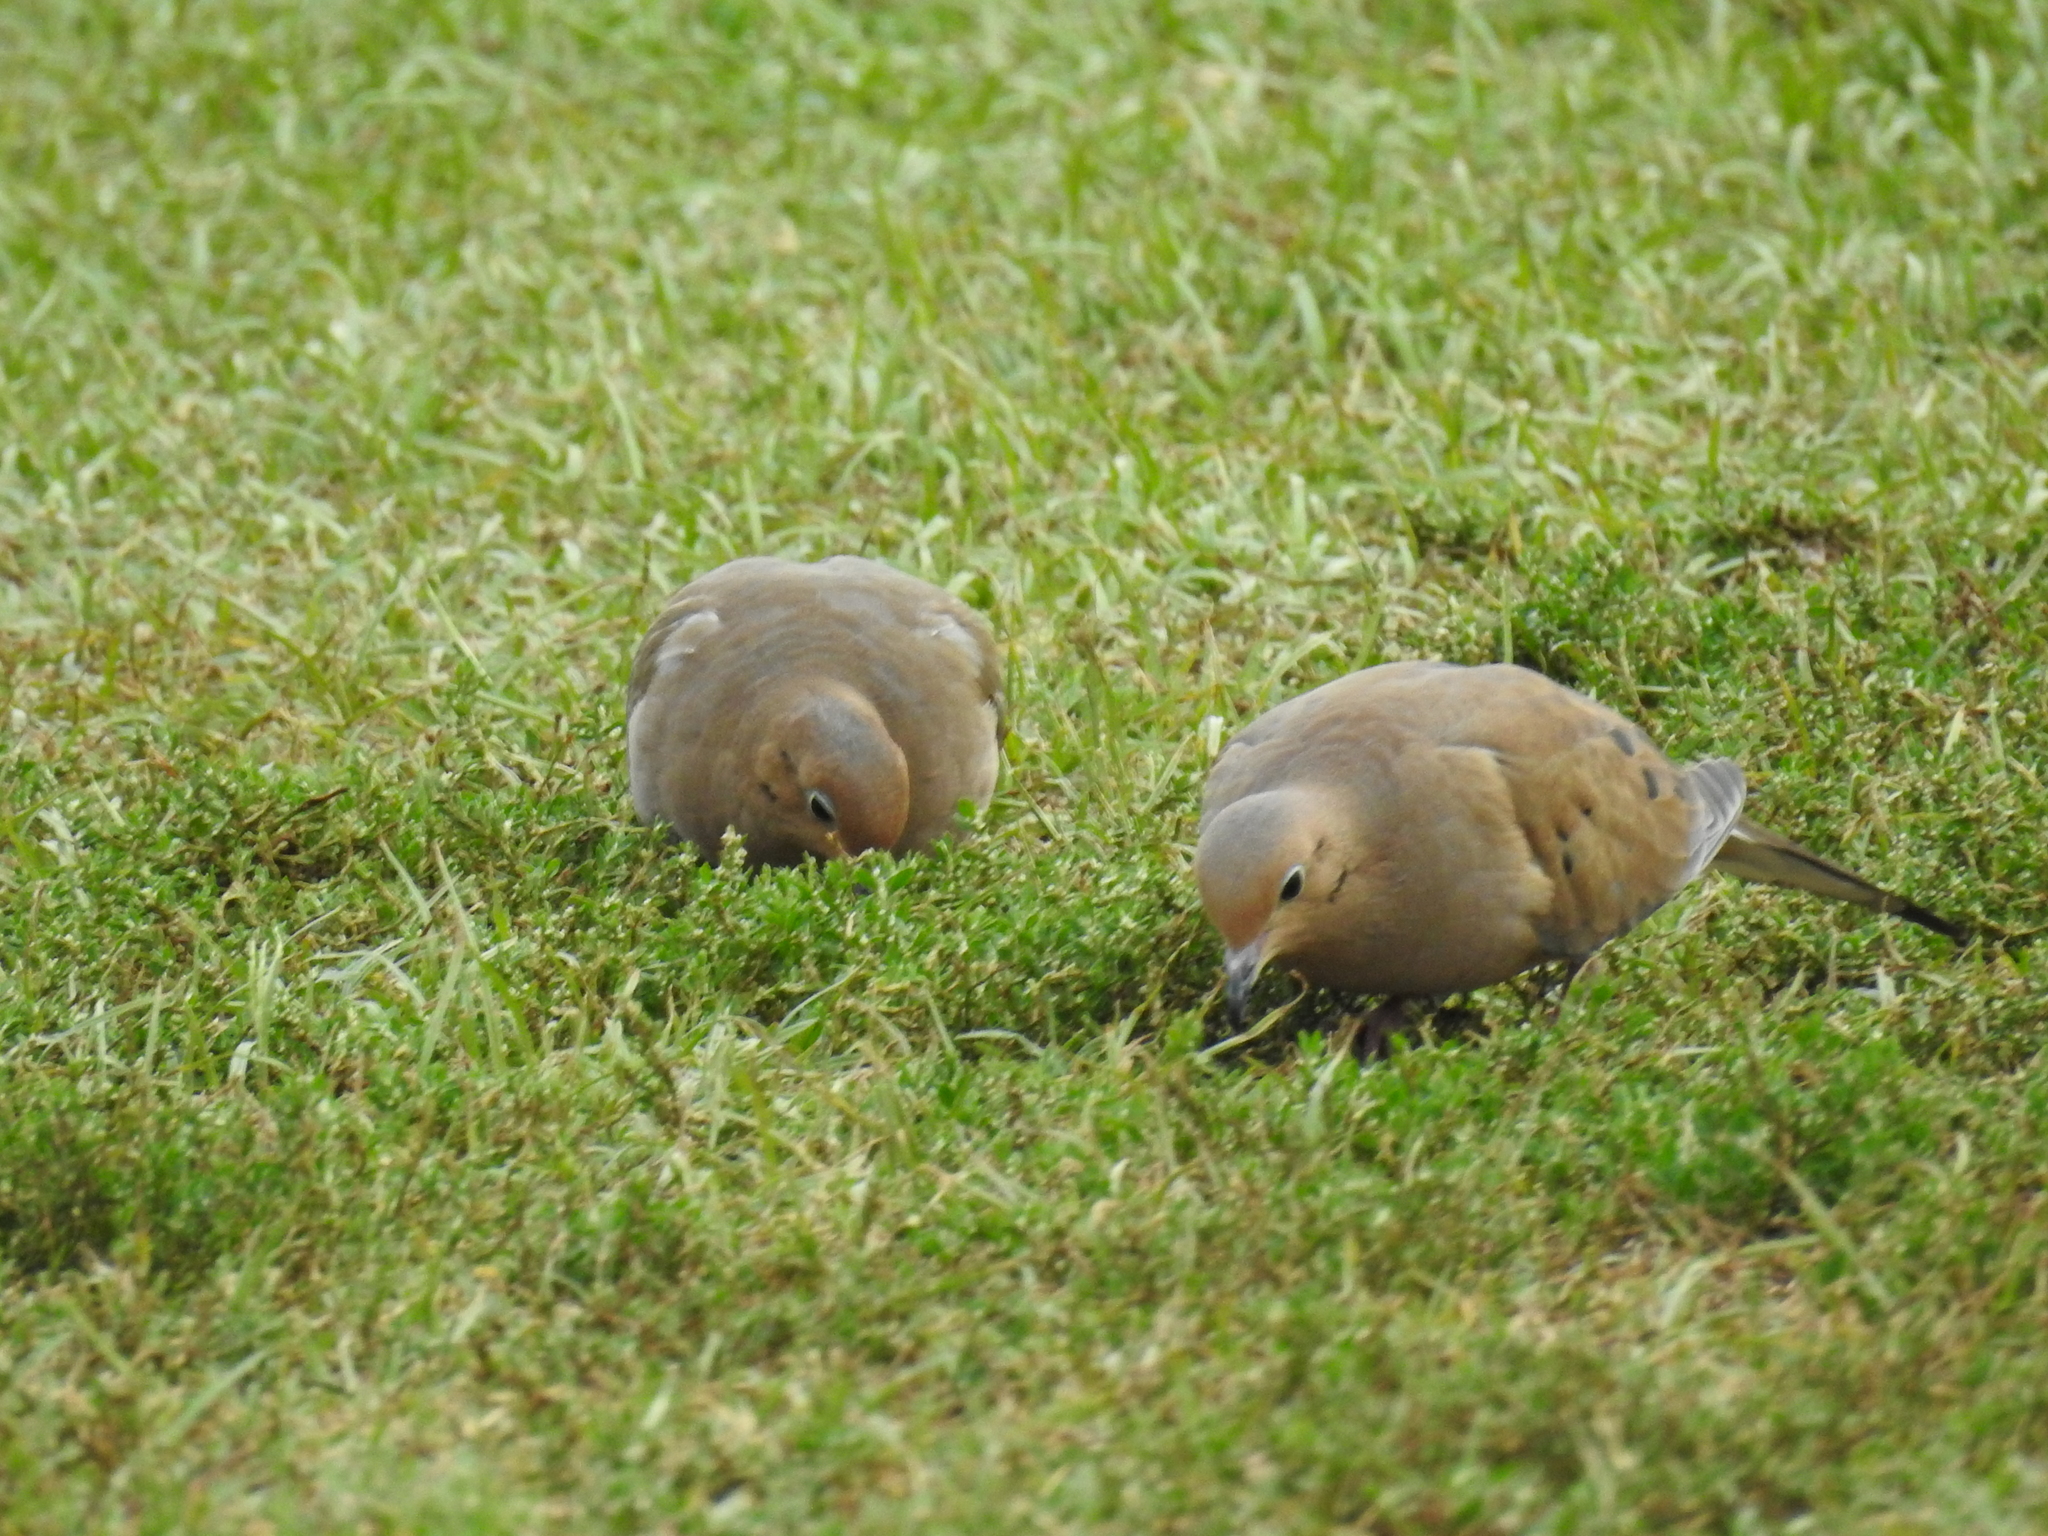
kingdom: Animalia
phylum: Chordata
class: Aves
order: Columbiformes
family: Columbidae
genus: Zenaida
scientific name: Zenaida macroura
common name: Mourning dove
